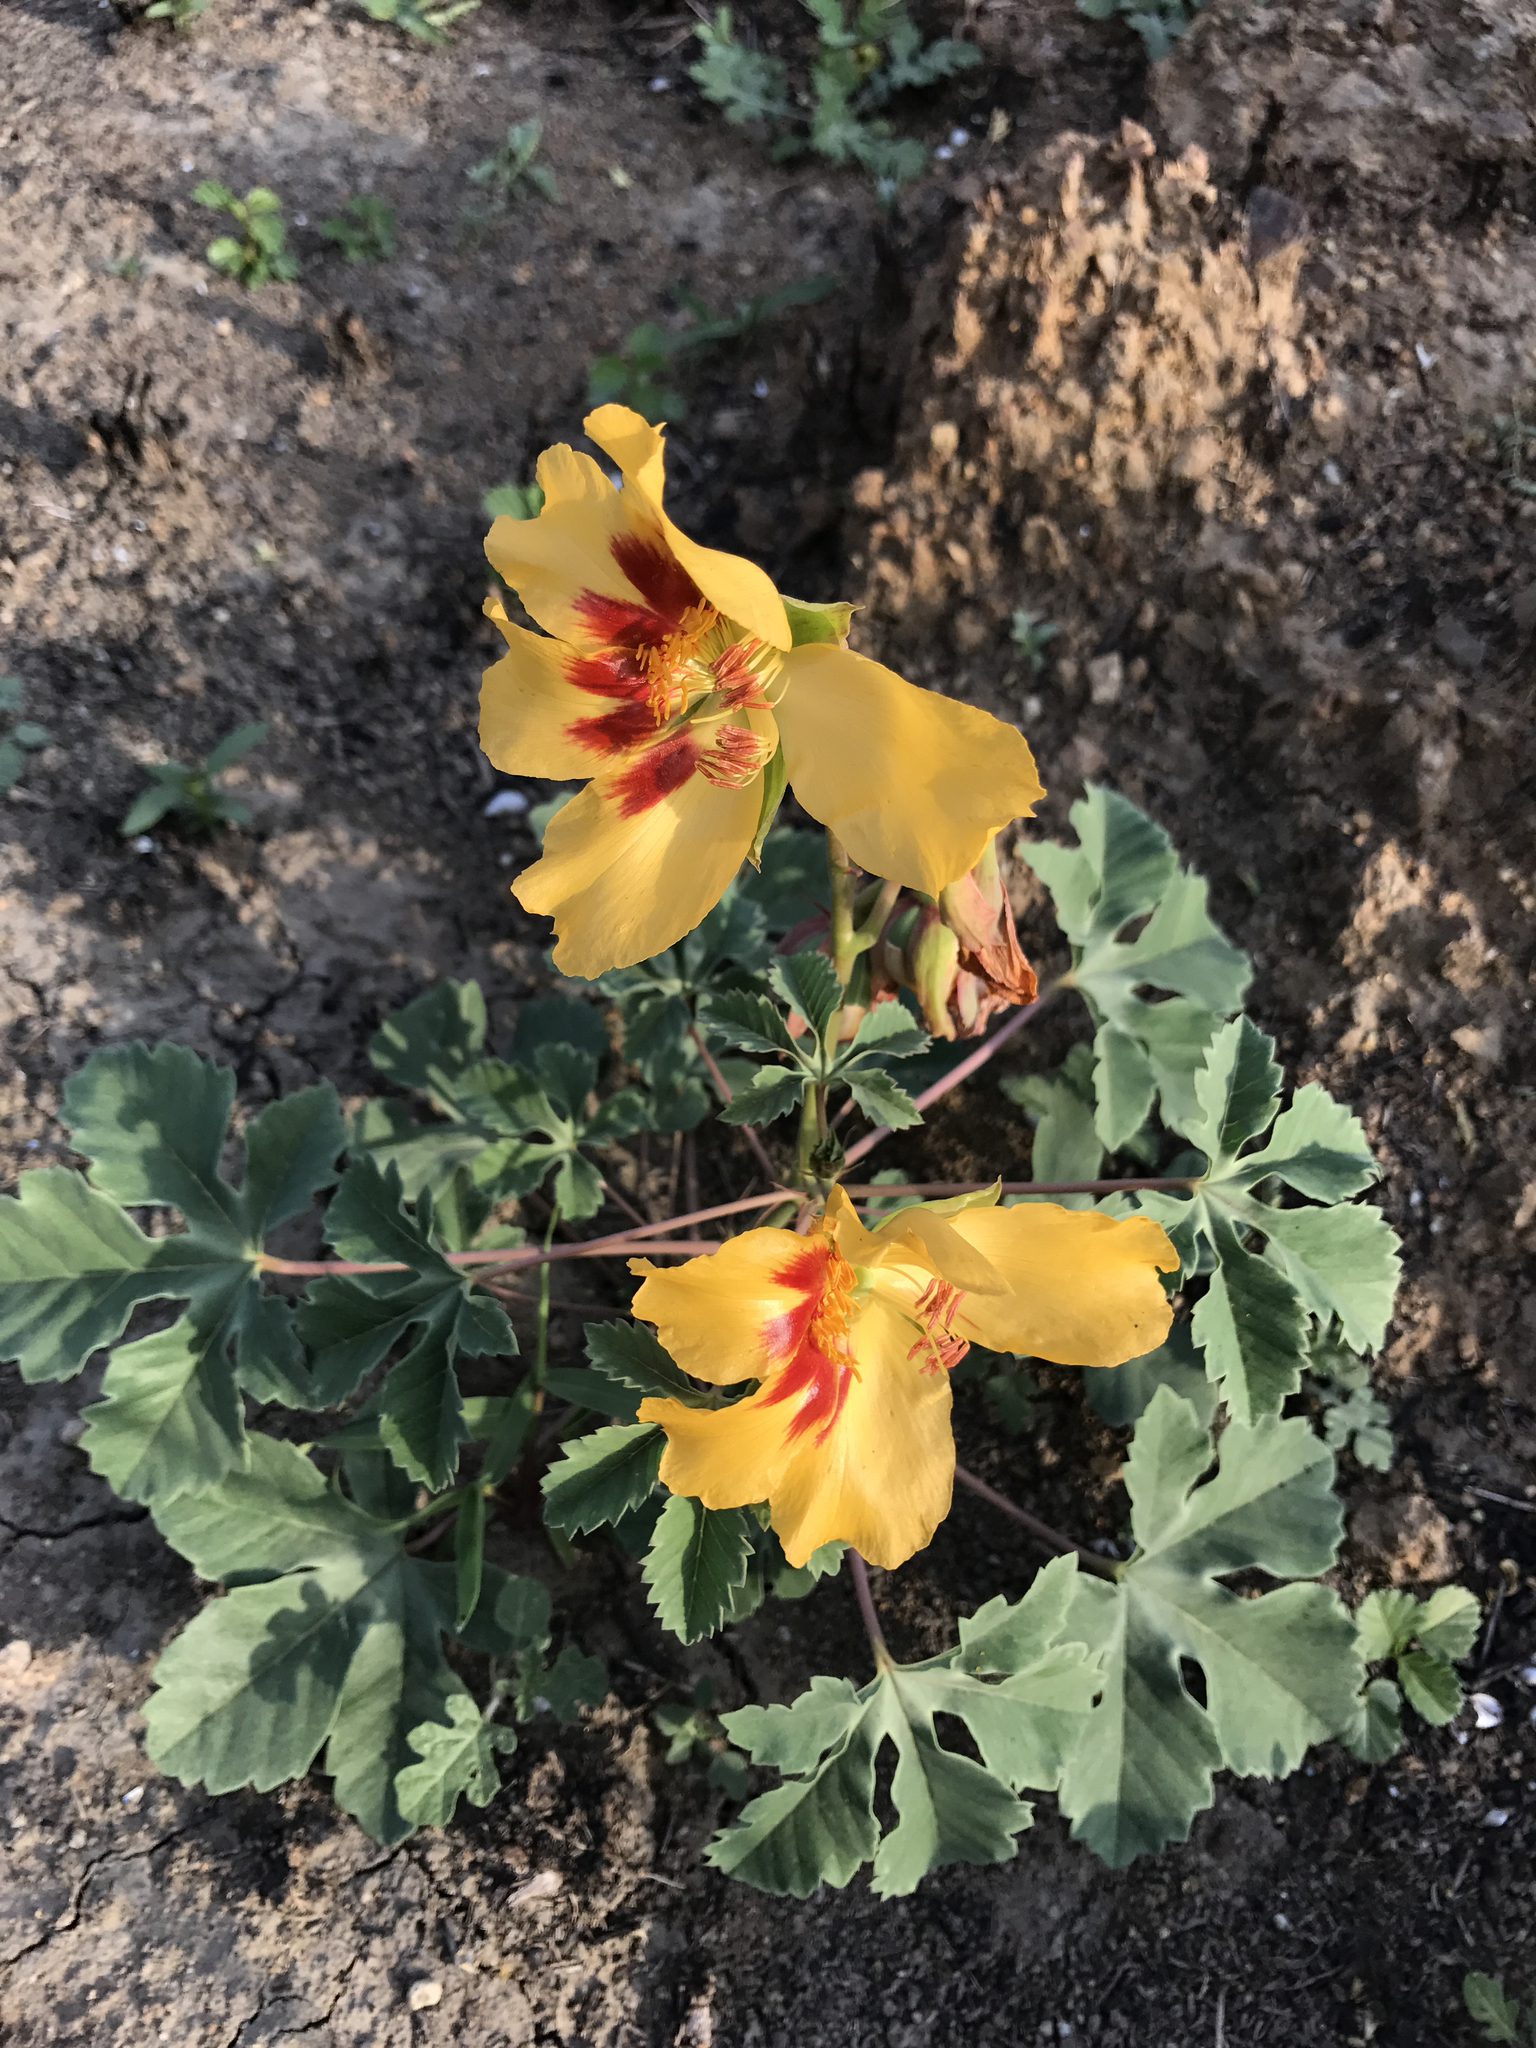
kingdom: Plantae
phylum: Tracheophyta
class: Magnoliopsida
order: Malvales
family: Cochlospermaceae
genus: Cochlospermum
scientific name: Cochlospermum wrightii
